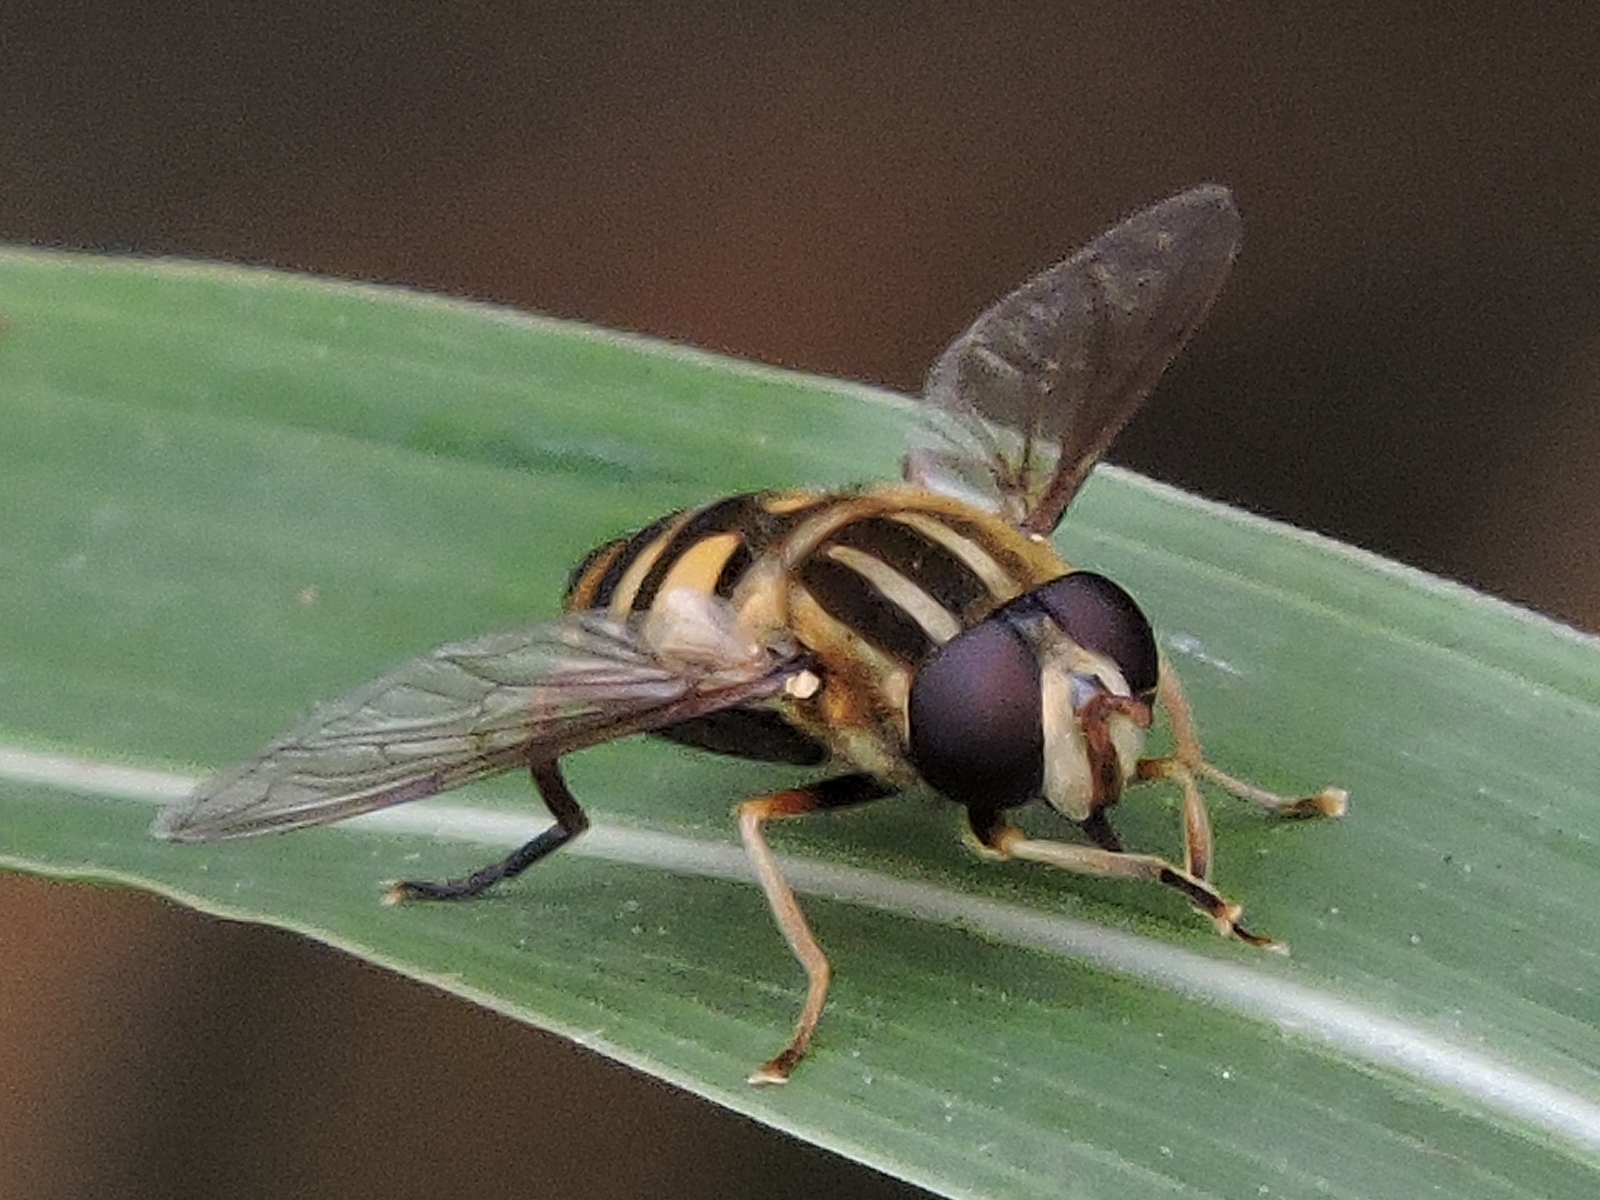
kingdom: Animalia
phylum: Arthropoda
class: Insecta
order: Diptera
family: Syrphidae
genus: Helophilus
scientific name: Helophilus fasciatus
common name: Narrow-headed marsh fly
